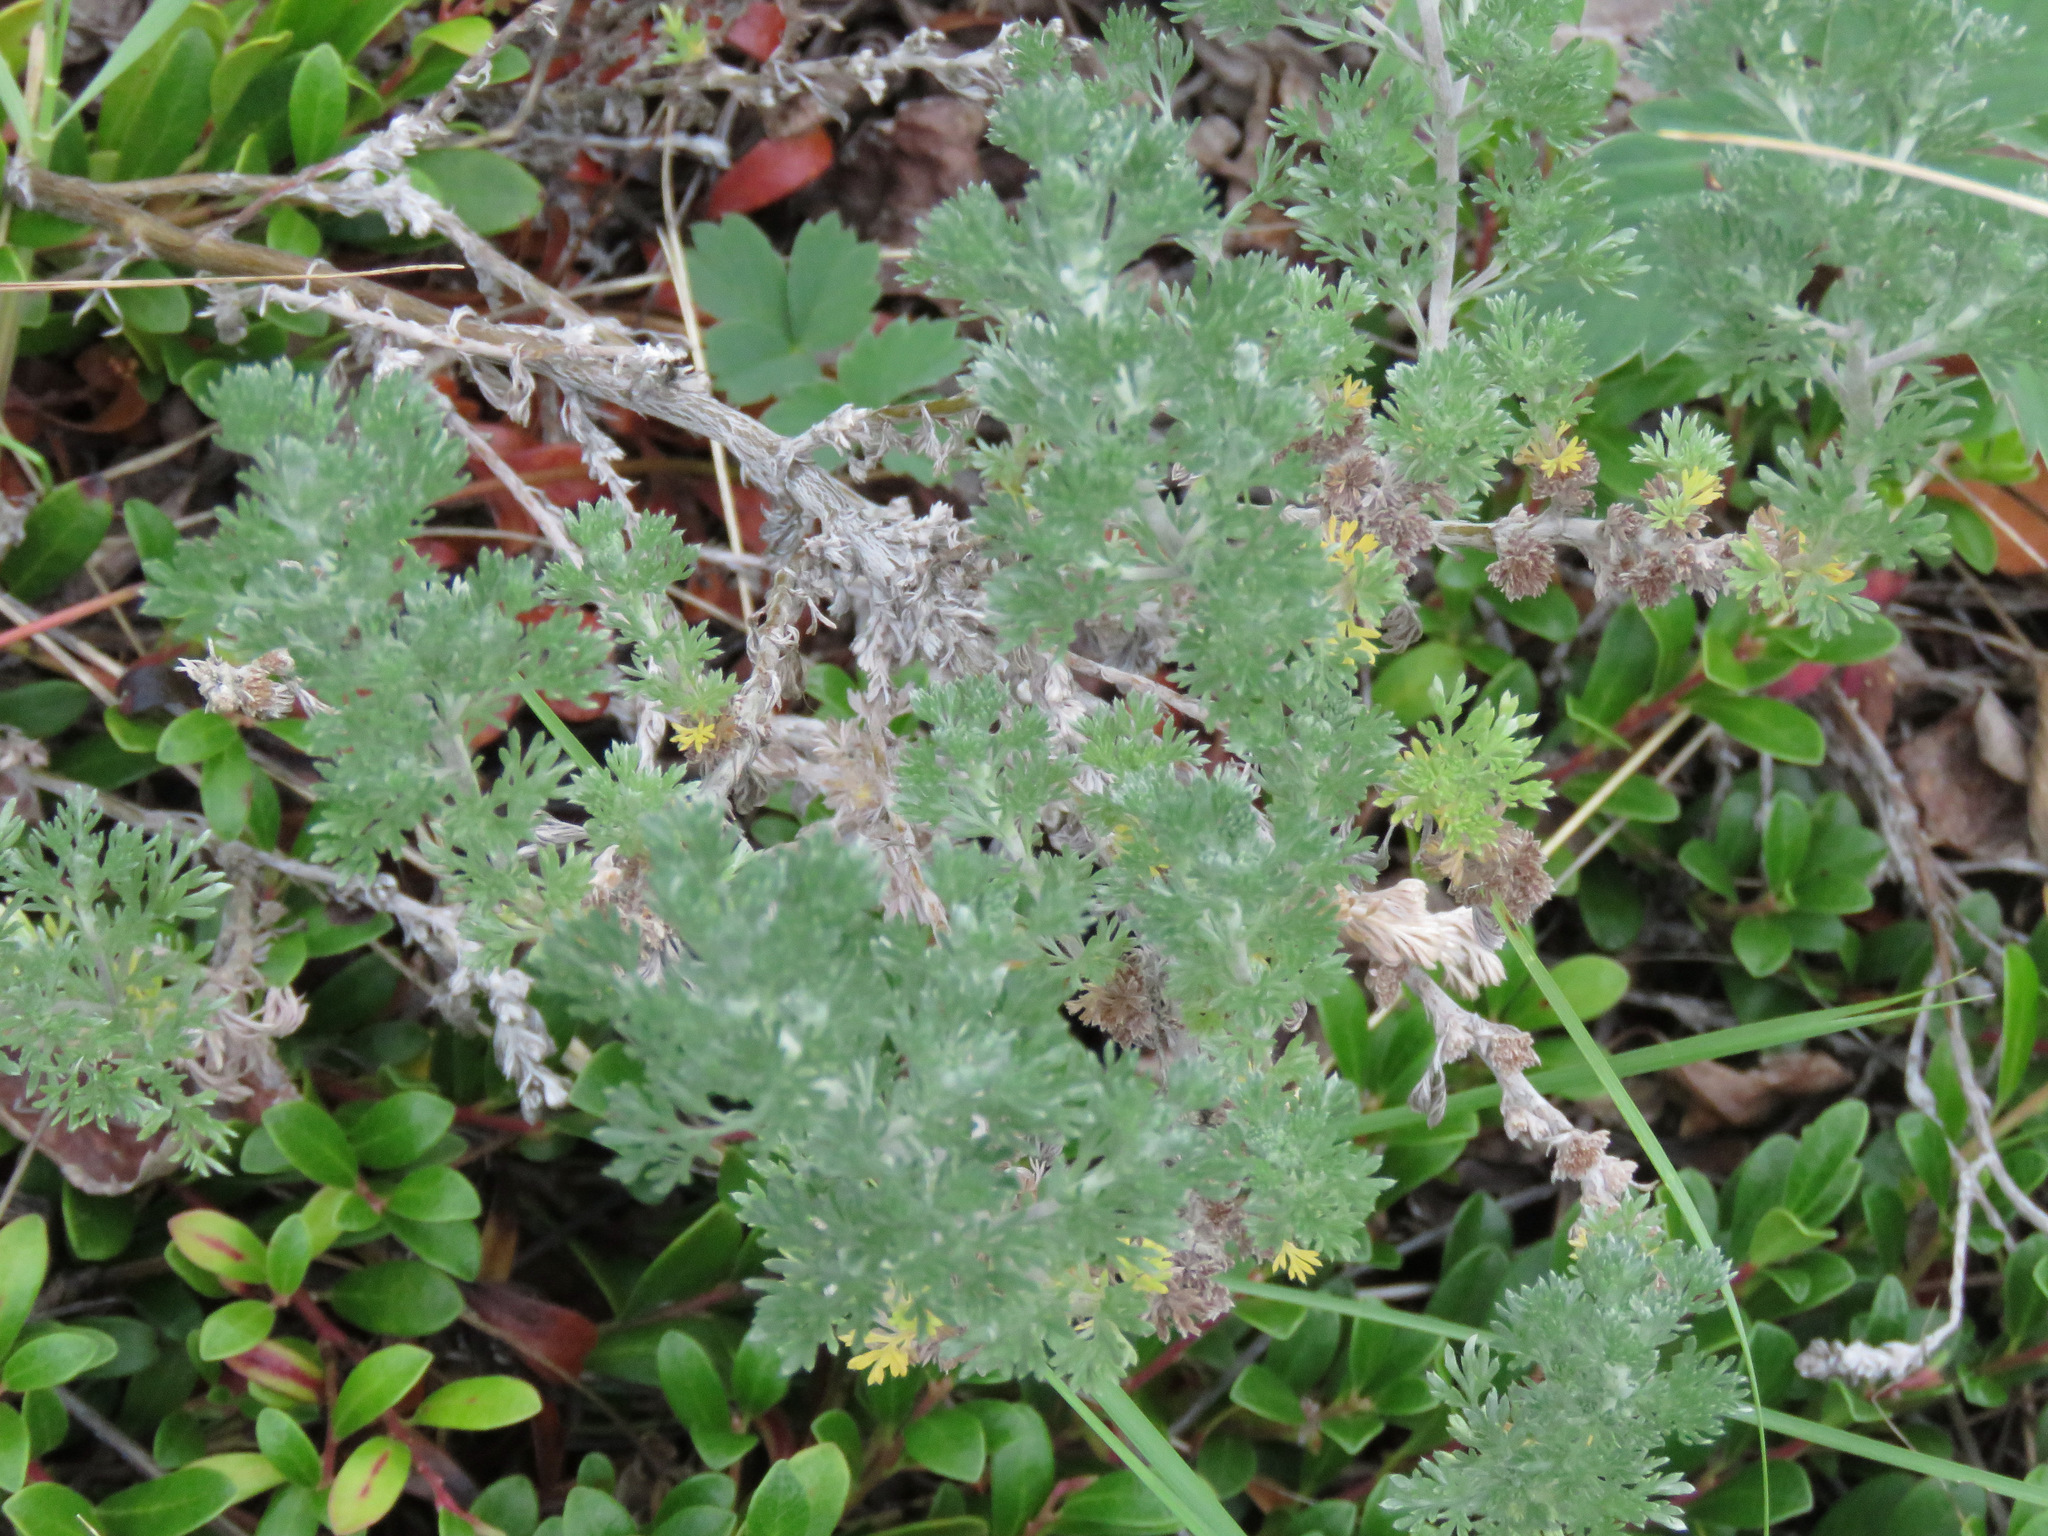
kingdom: Plantae
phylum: Tracheophyta
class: Magnoliopsida
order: Asterales
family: Asteraceae
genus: Artemisia
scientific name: Artemisia frigida
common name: Prairie sagewort
